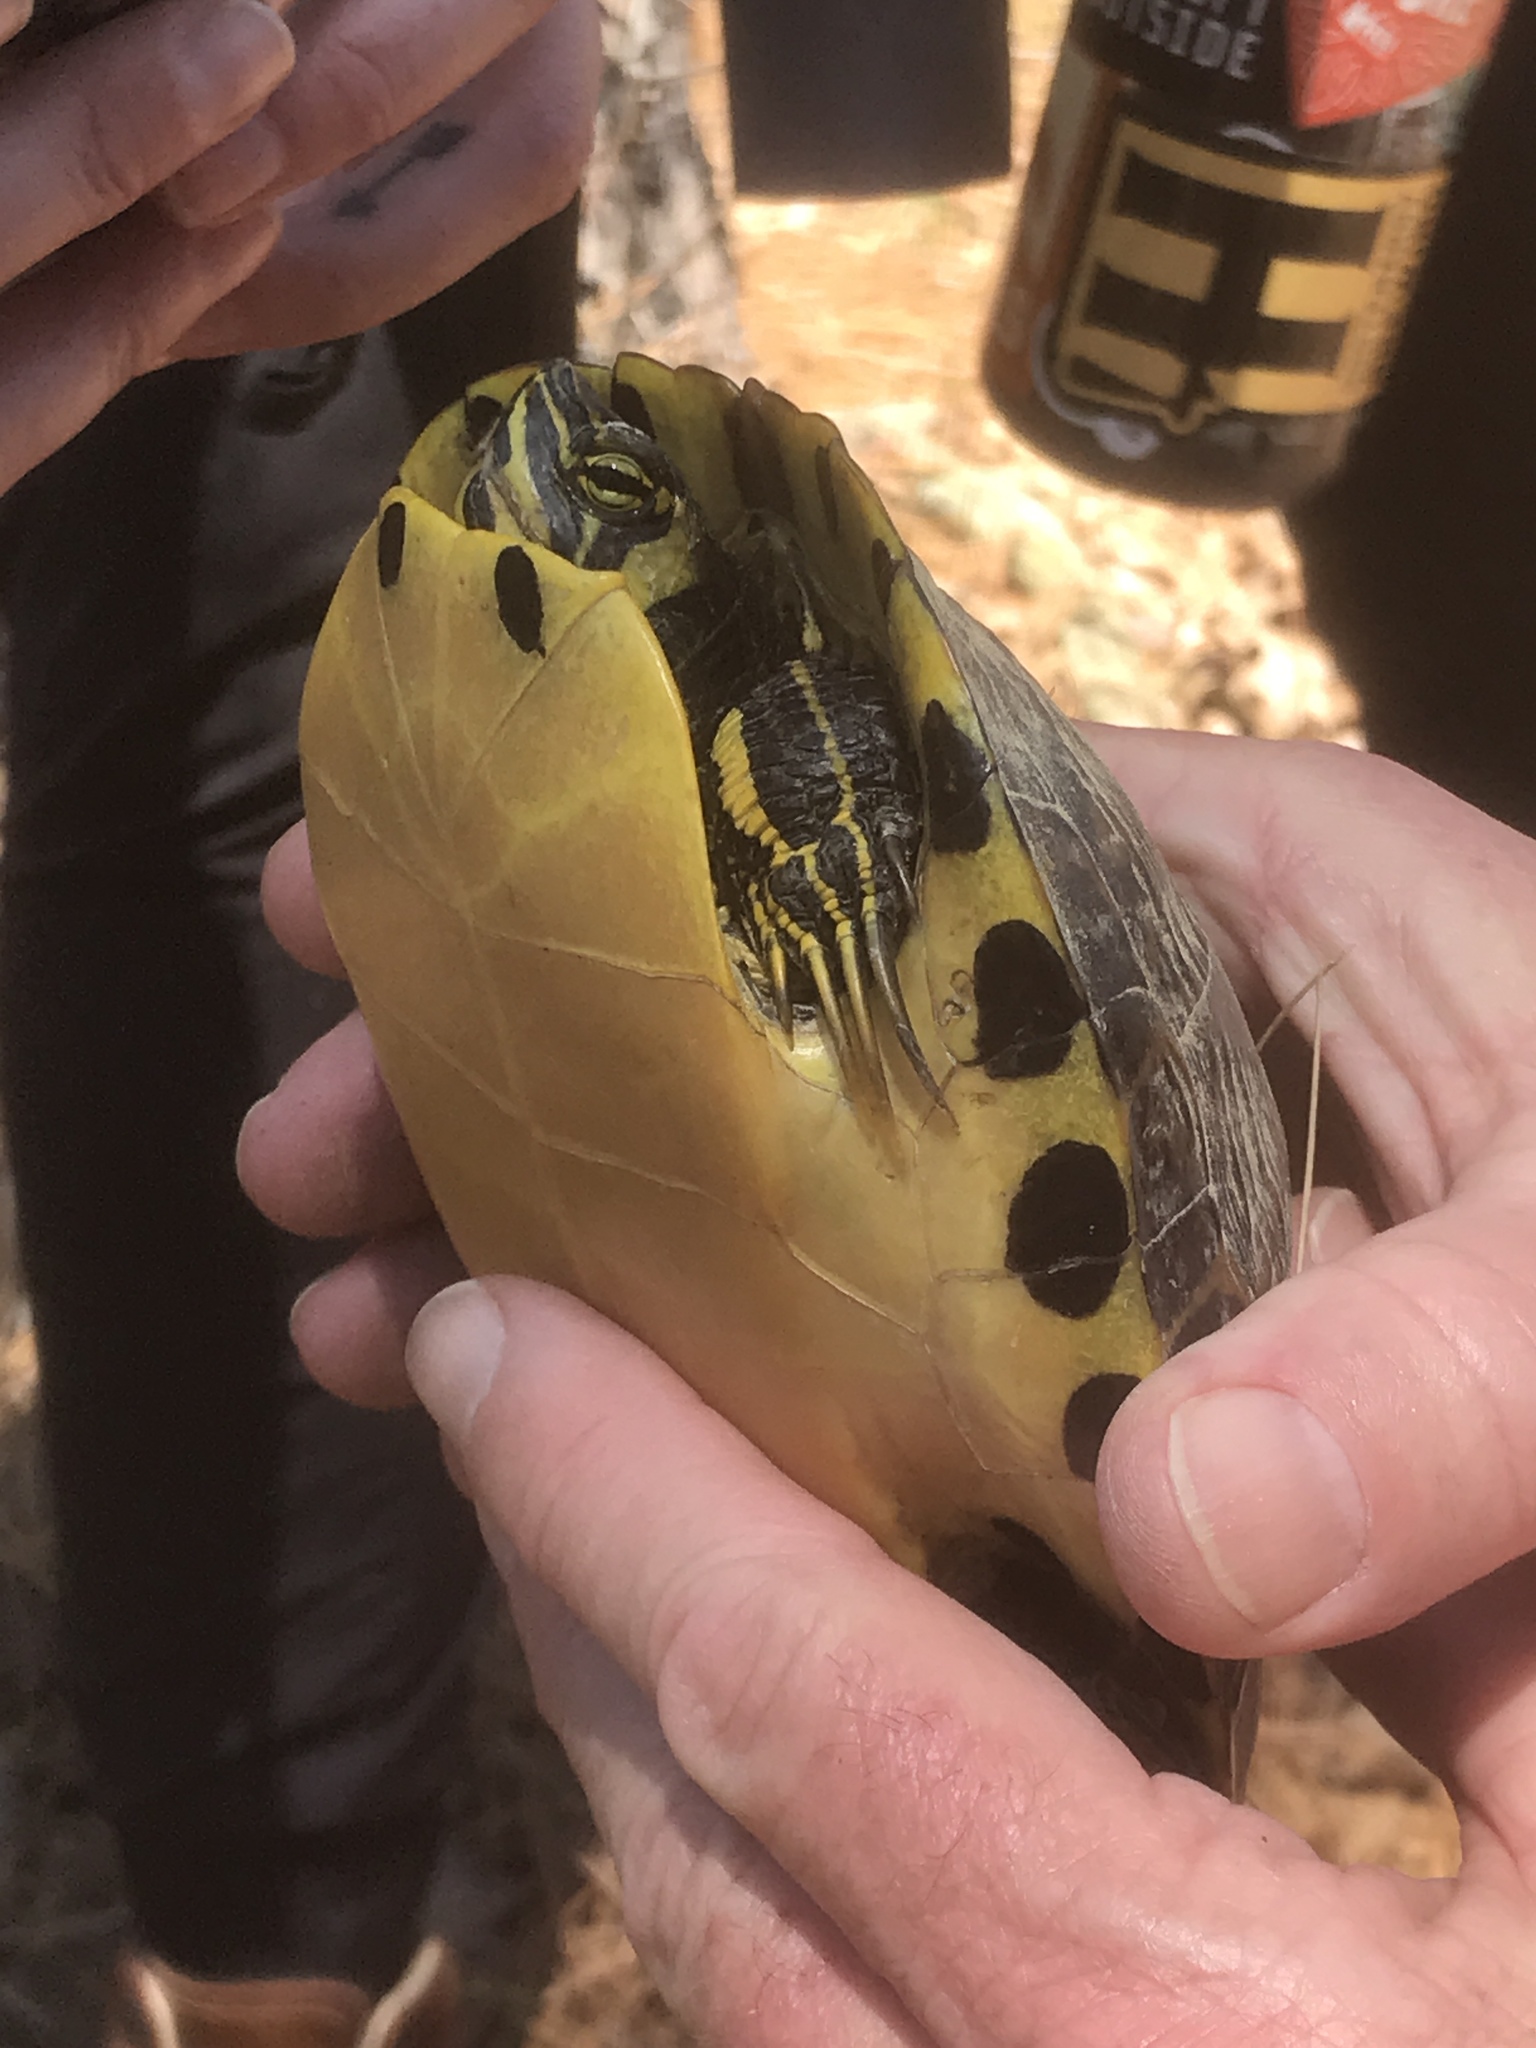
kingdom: Animalia
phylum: Chordata
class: Testudines
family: Emydidae
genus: Trachemys
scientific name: Trachemys scripta
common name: Slider
